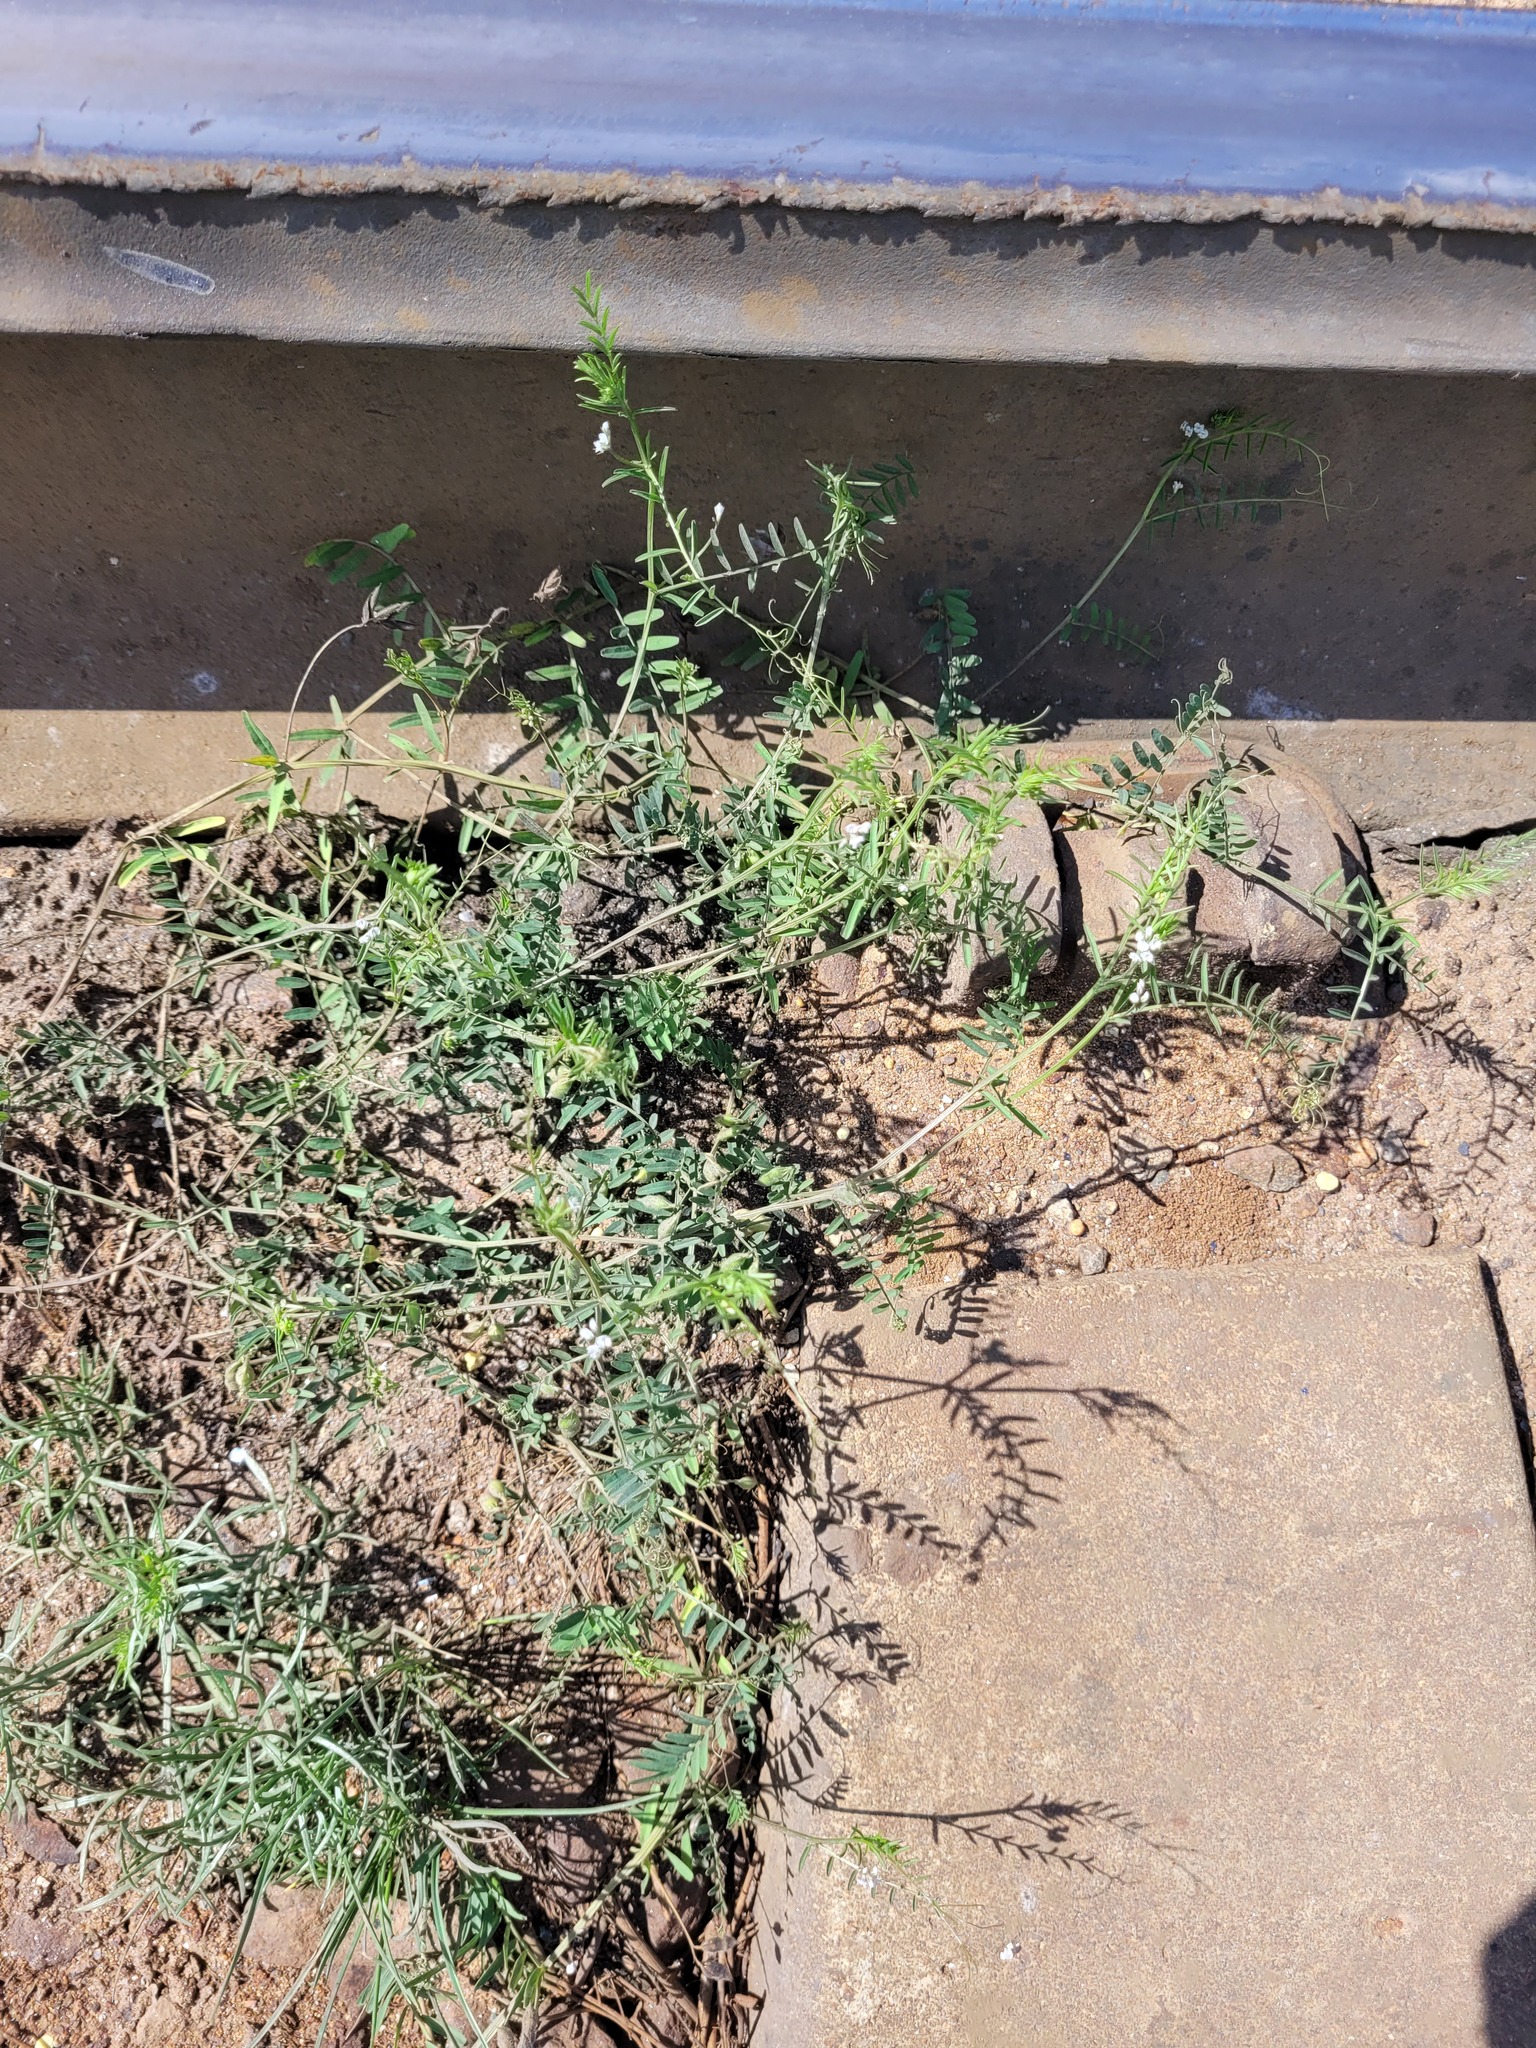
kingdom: Plantae
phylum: Tracheophyta
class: Magnoliopsida
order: Fabales
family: Fabaceae
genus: Vicia
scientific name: Vicia hirsuta
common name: Tiny vetch
